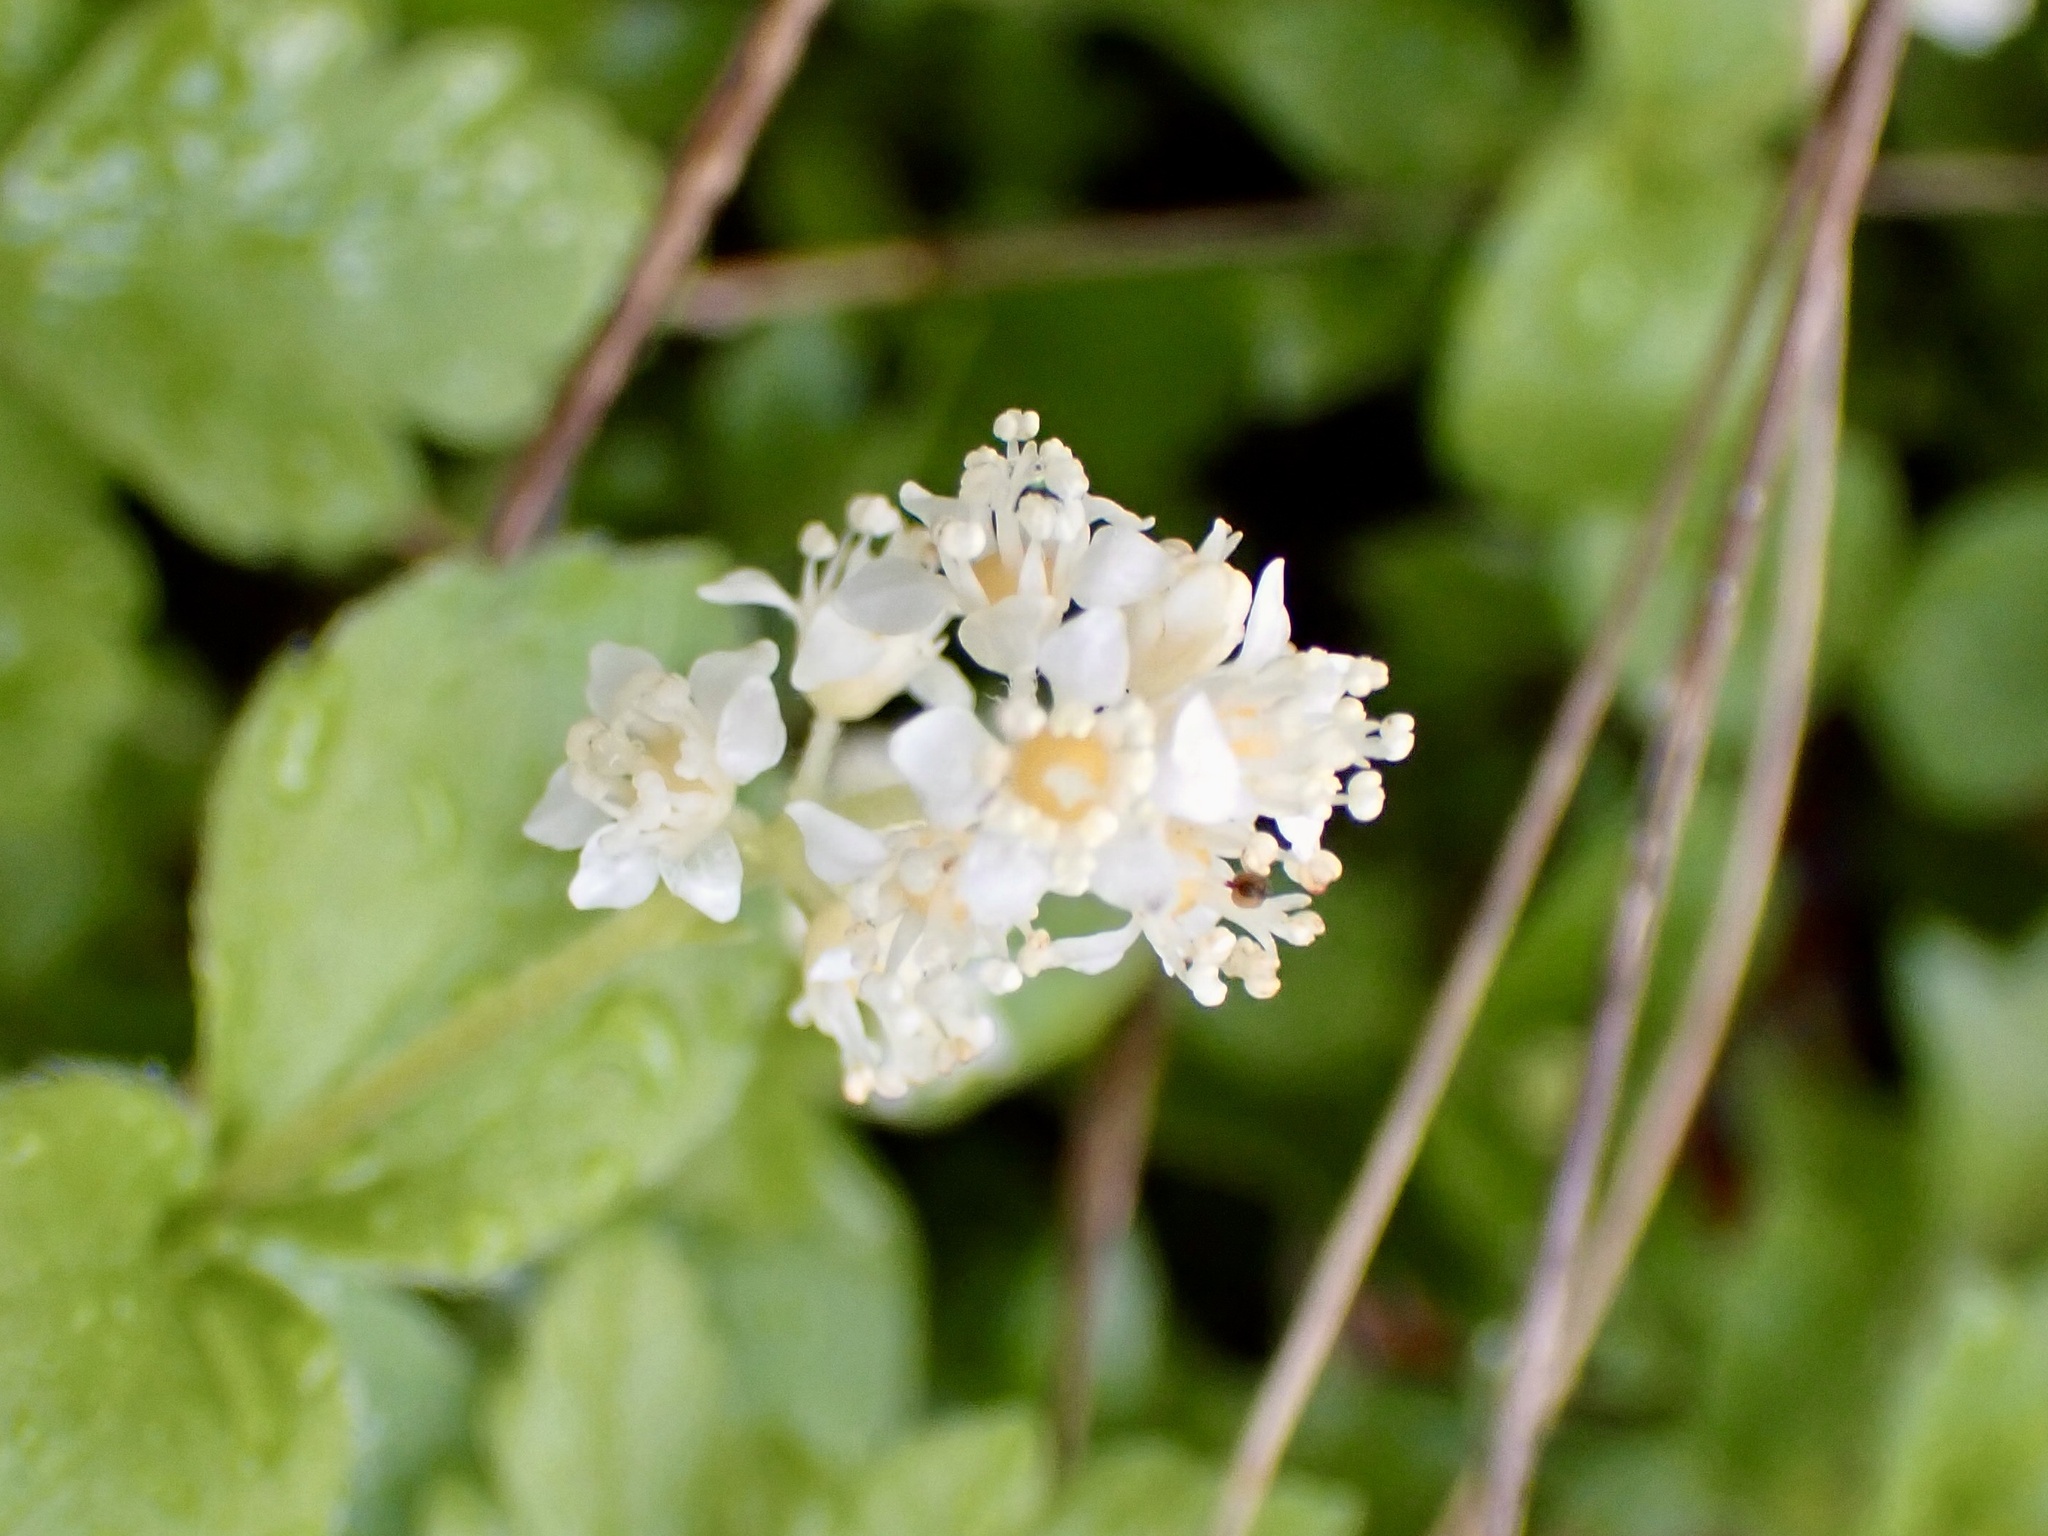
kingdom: Plantae
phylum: Tracheophyta
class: Magnoliopsida
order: Cornales
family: Hydrangeaceae
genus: Whipplea
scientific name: Whipplea modesta
